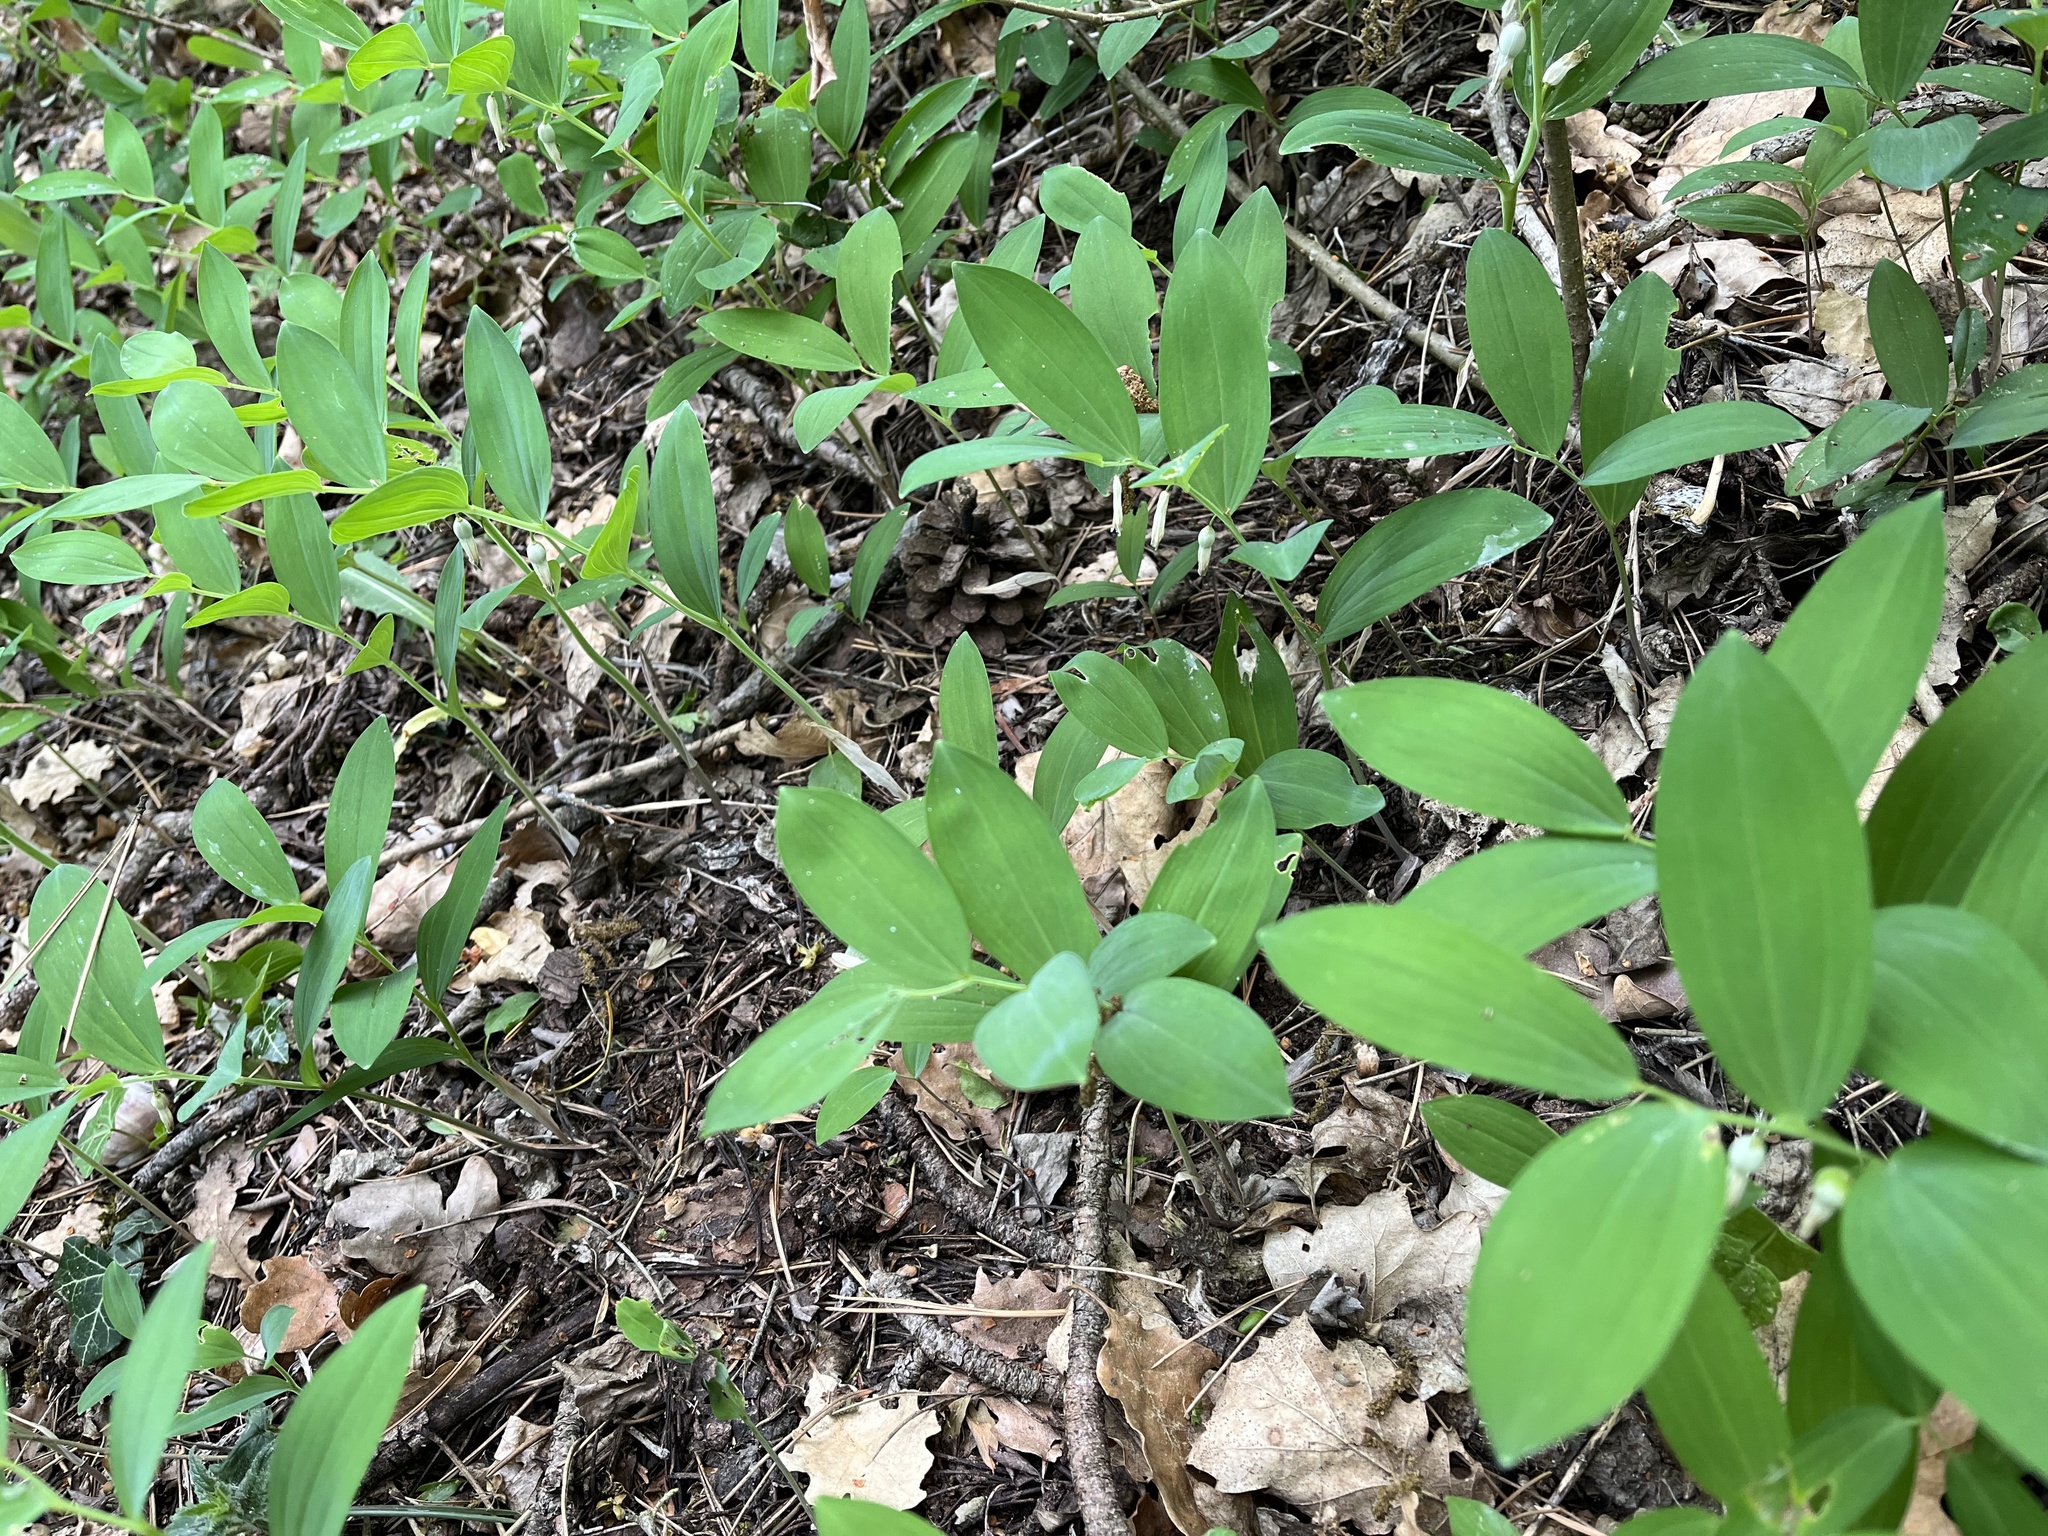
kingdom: Plantae
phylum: Tracheophyta
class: Liliopsida
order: Asparagales
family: Asparagaceae
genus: Polygonatum
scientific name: Polygonatum odoratum
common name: Angular solomon's-seal
